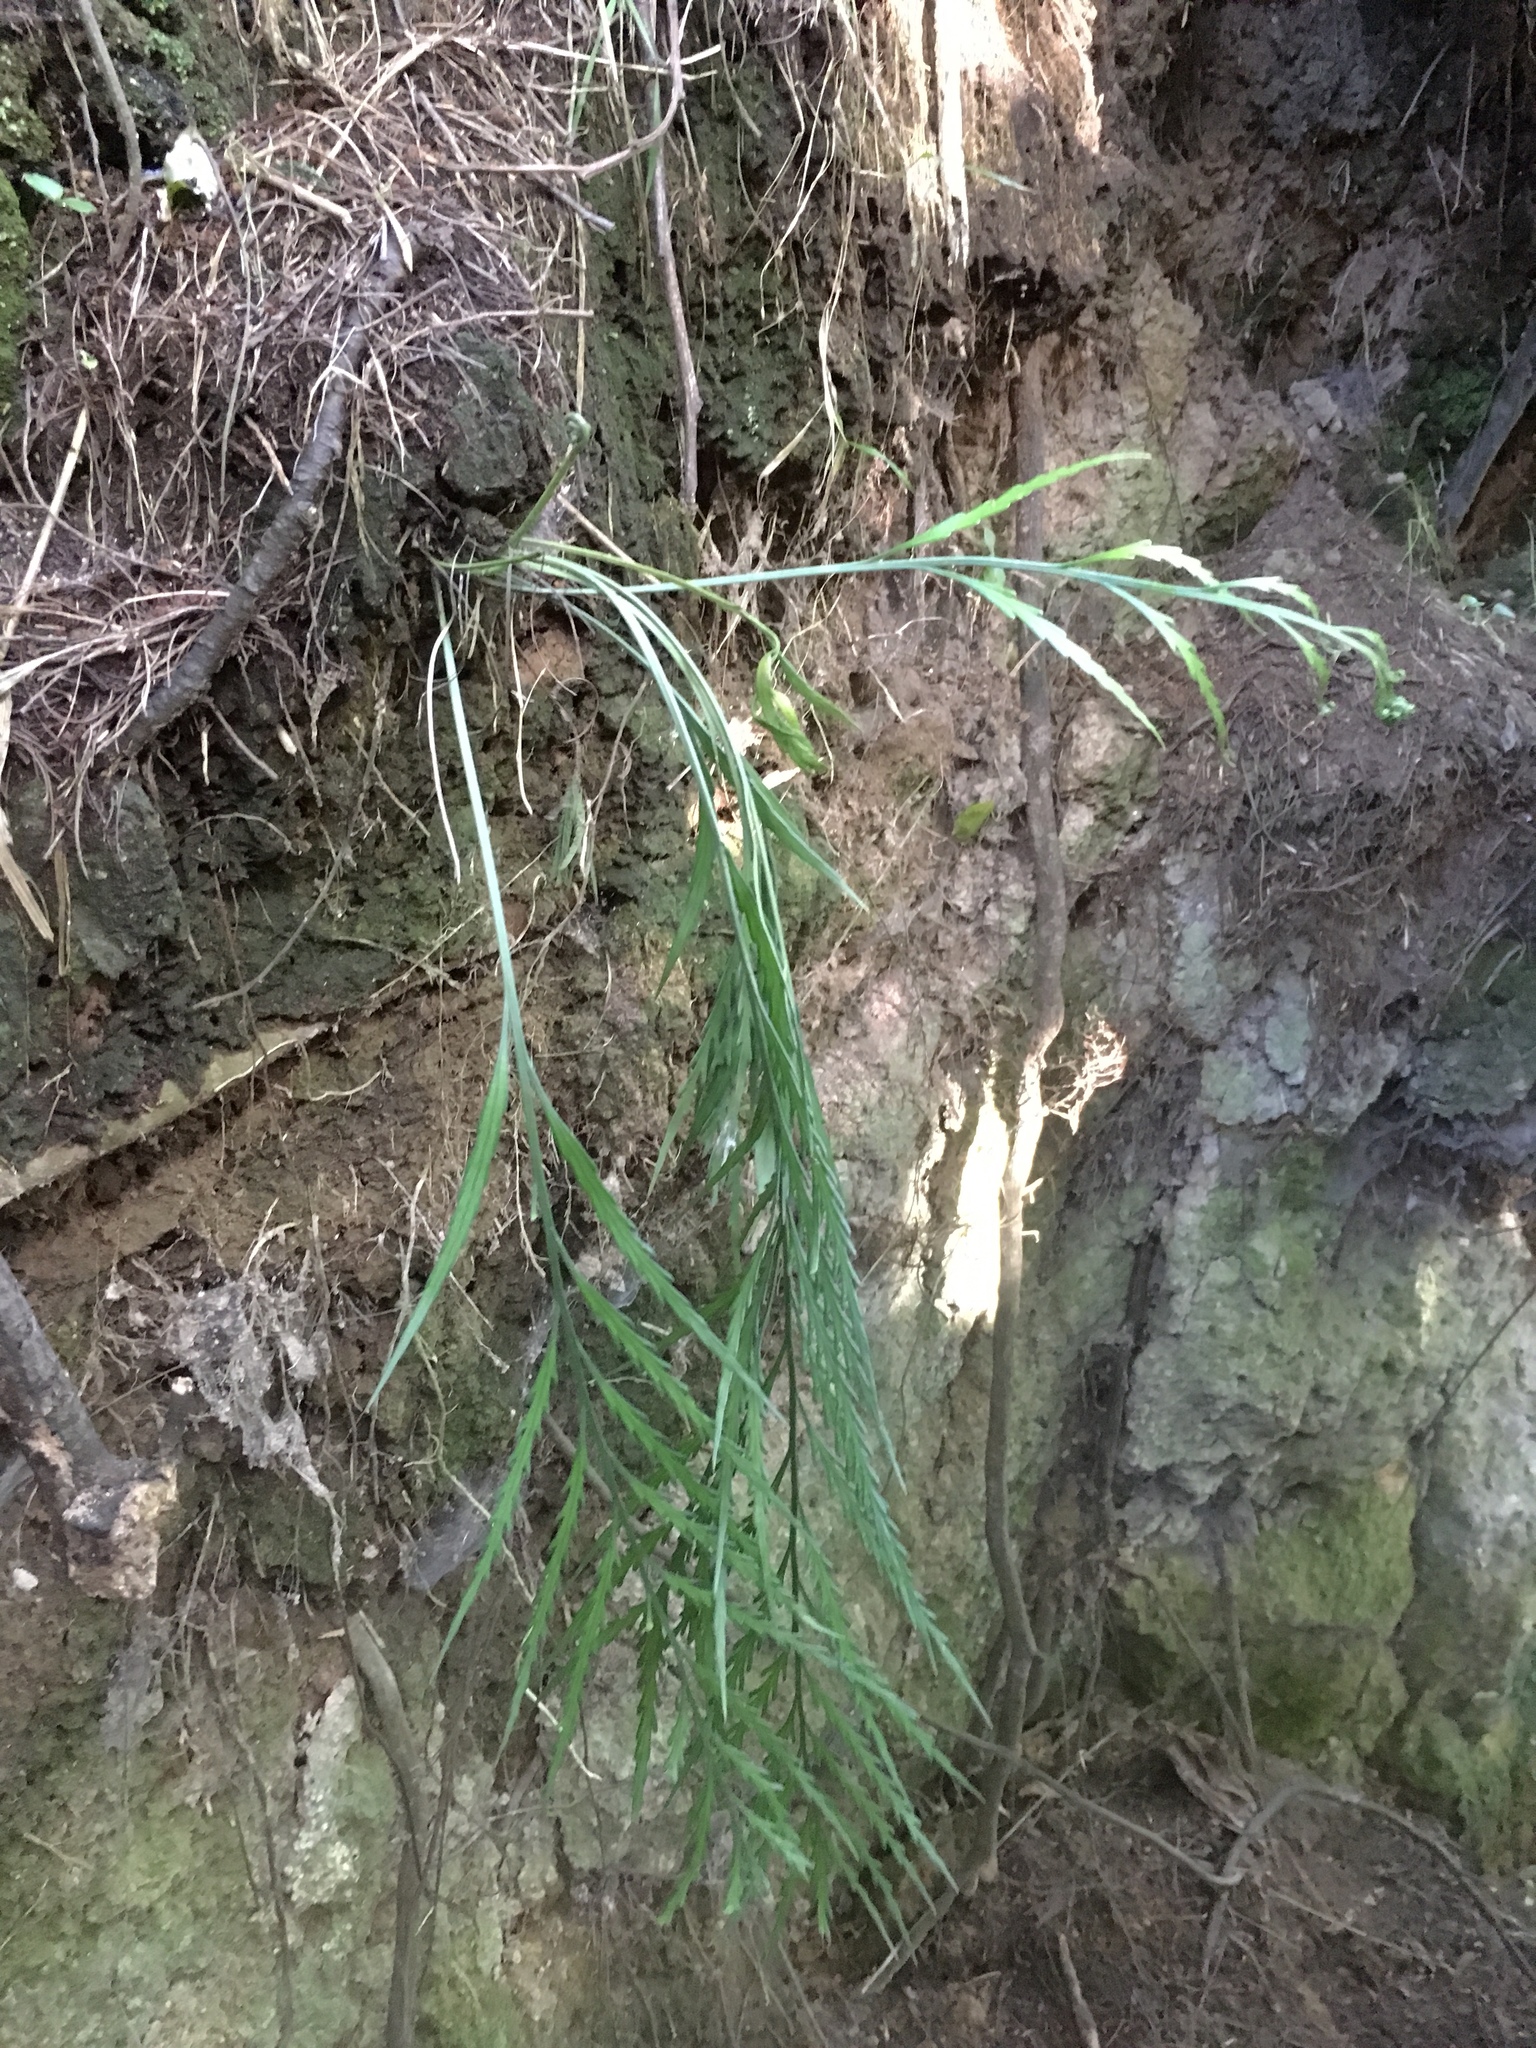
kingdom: Plantae
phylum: Tracheophyta
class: Polypodiopsida
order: Polypodiales
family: Aspleniaceae
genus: Asplenium
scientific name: Asplenium flaccidum
